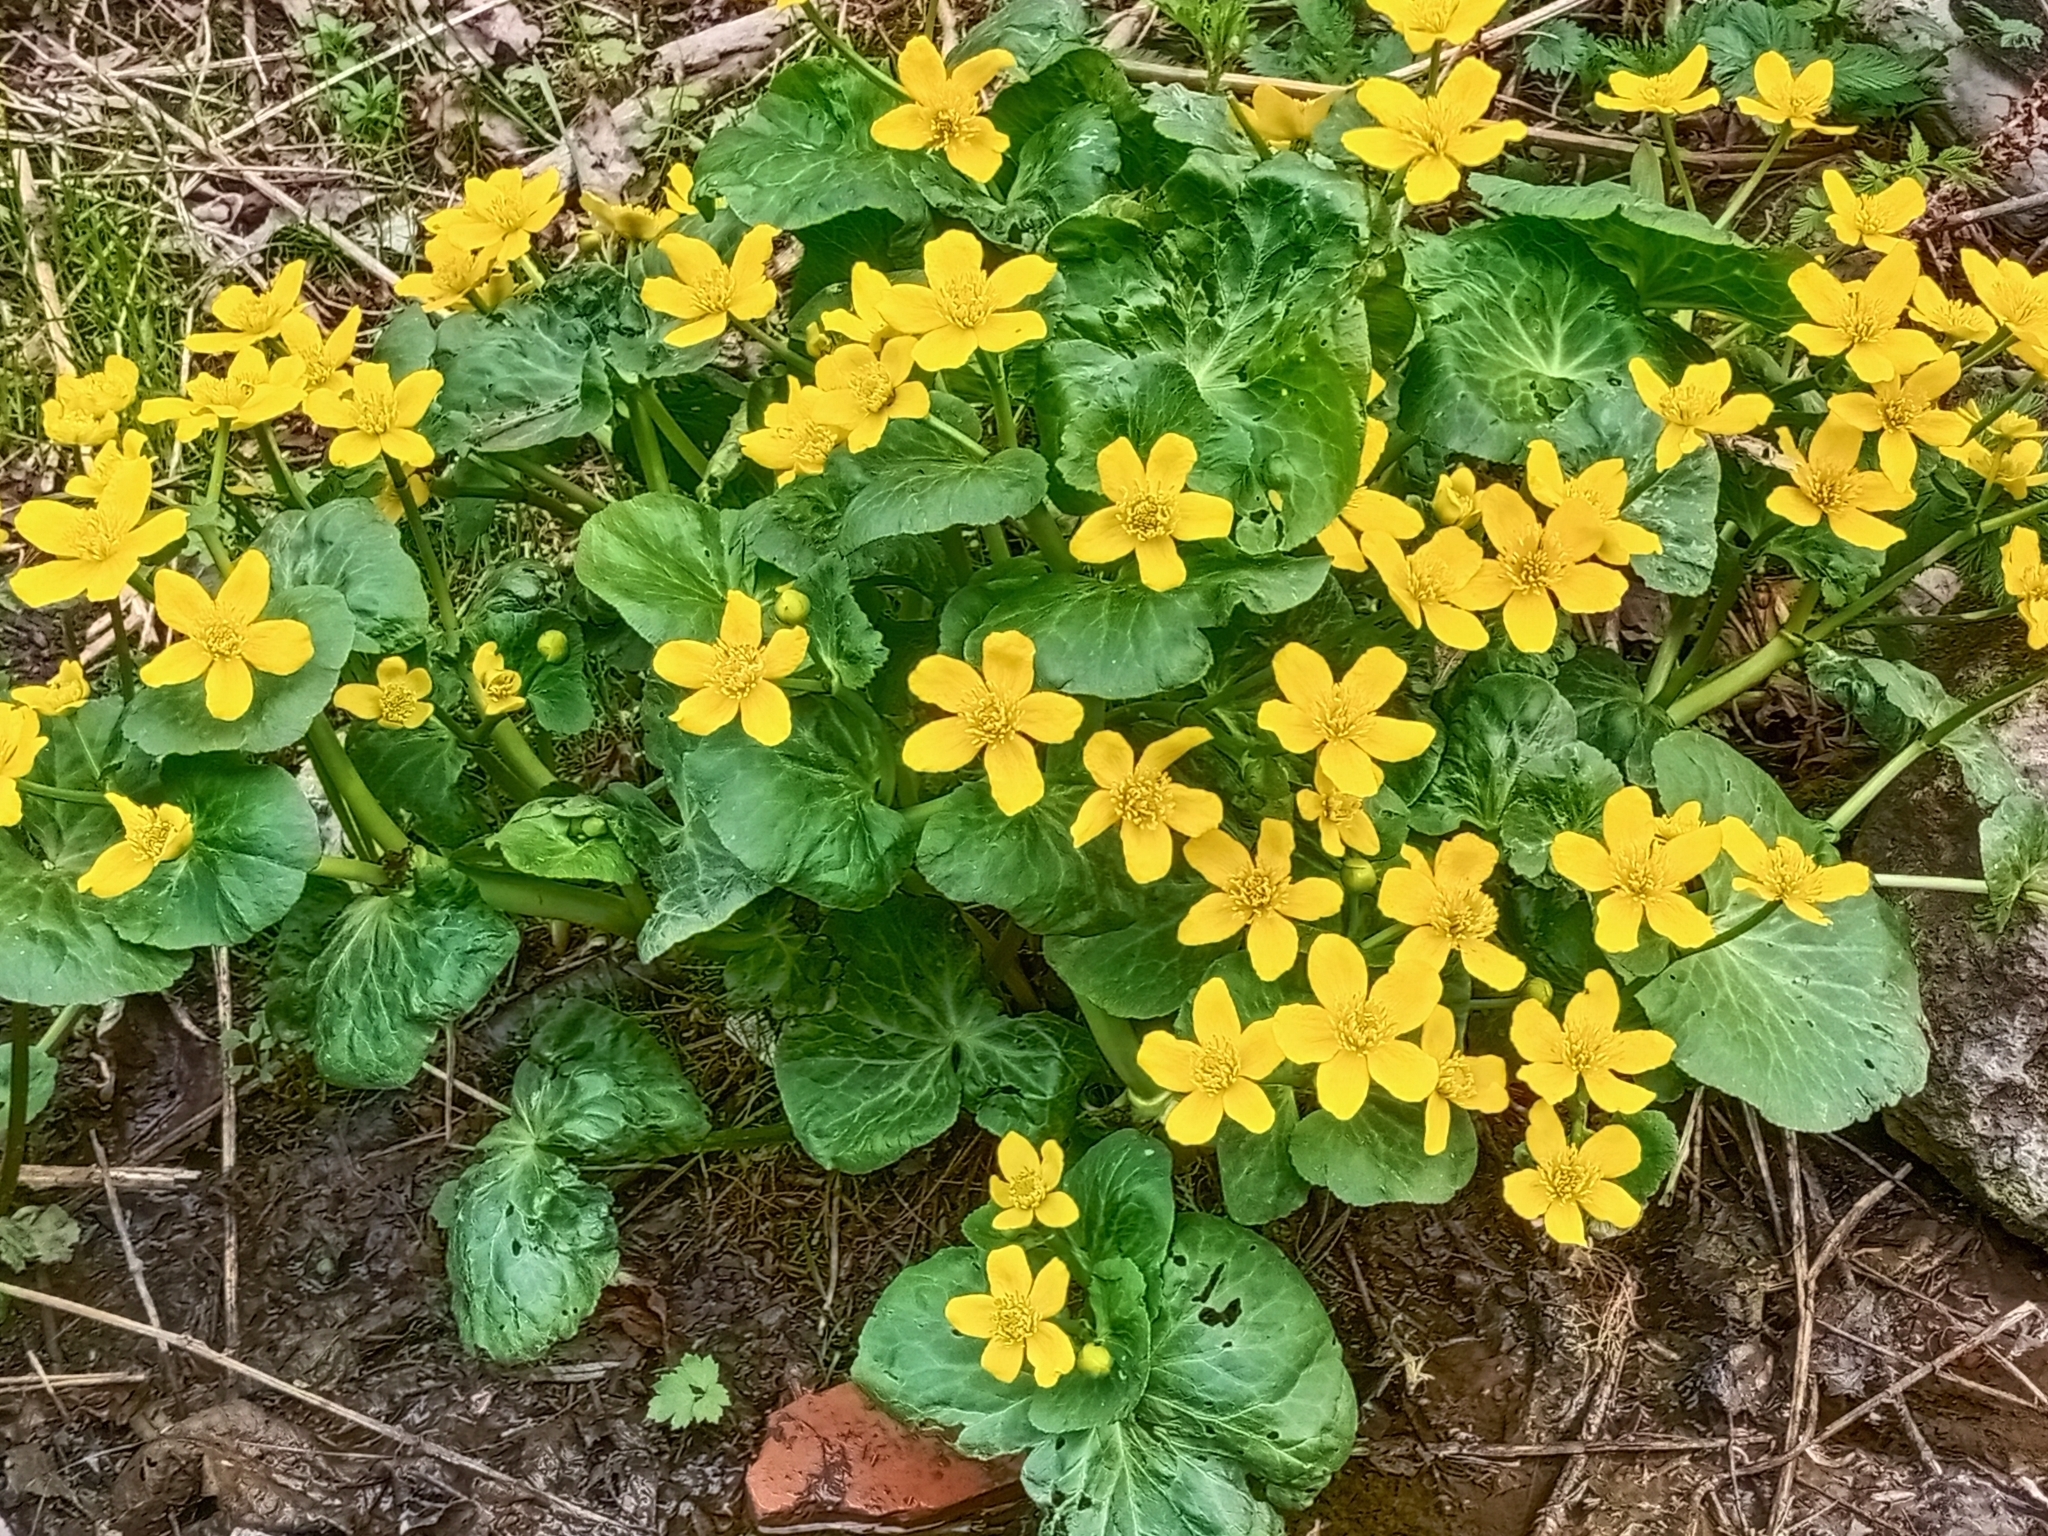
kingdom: Plantae
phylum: Tracheophyta
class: Magnoliopsida
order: Ranunculales
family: Ranunculaceae
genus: Caltha
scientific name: Caltha palustris
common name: Marsh marigold
